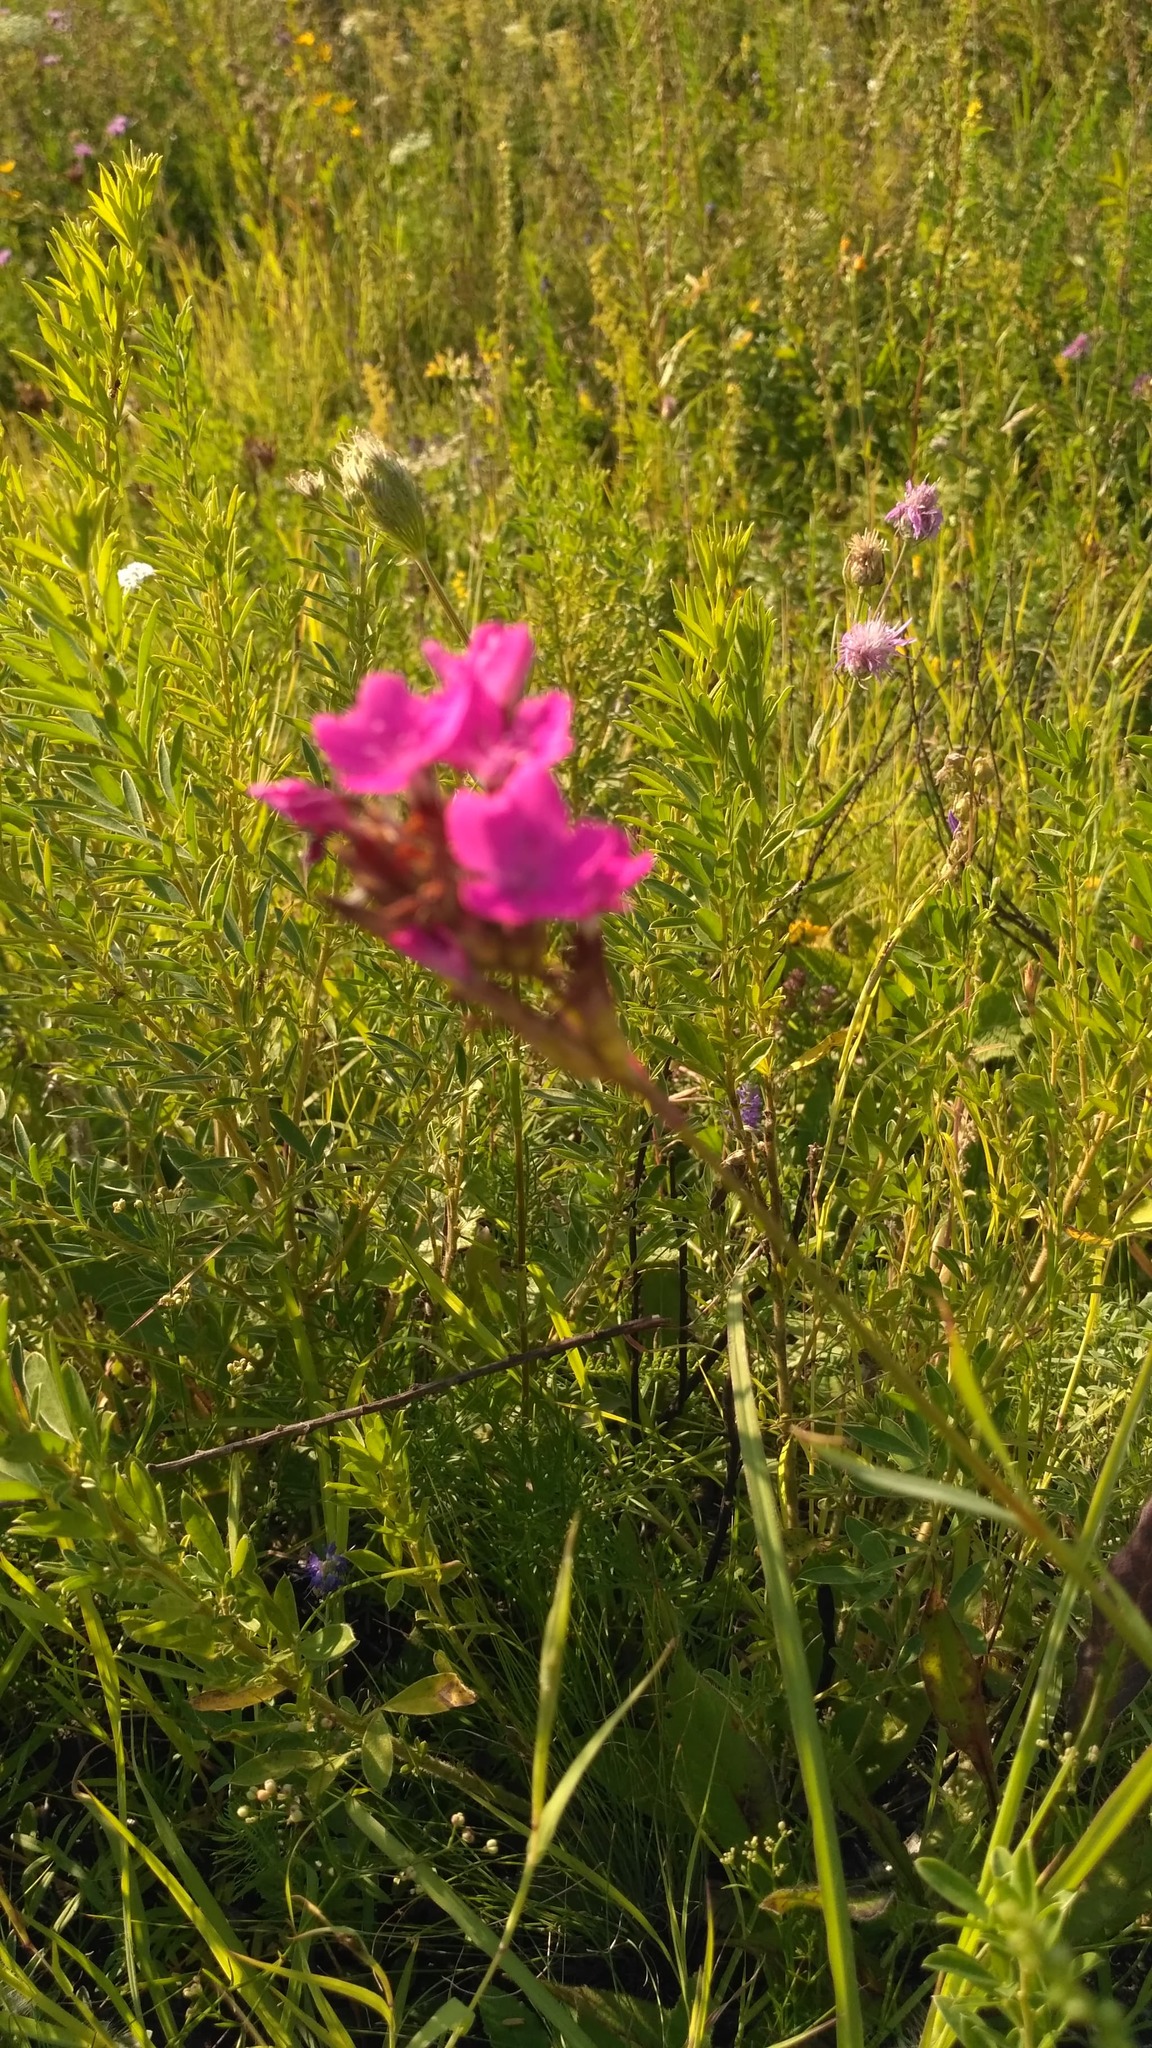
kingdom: Plantae
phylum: Tracheophyta
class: Magnoliopsida
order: Caryophyllales
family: Caryophyllaceae
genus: Dianthus
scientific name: Dianthus membranaceus
